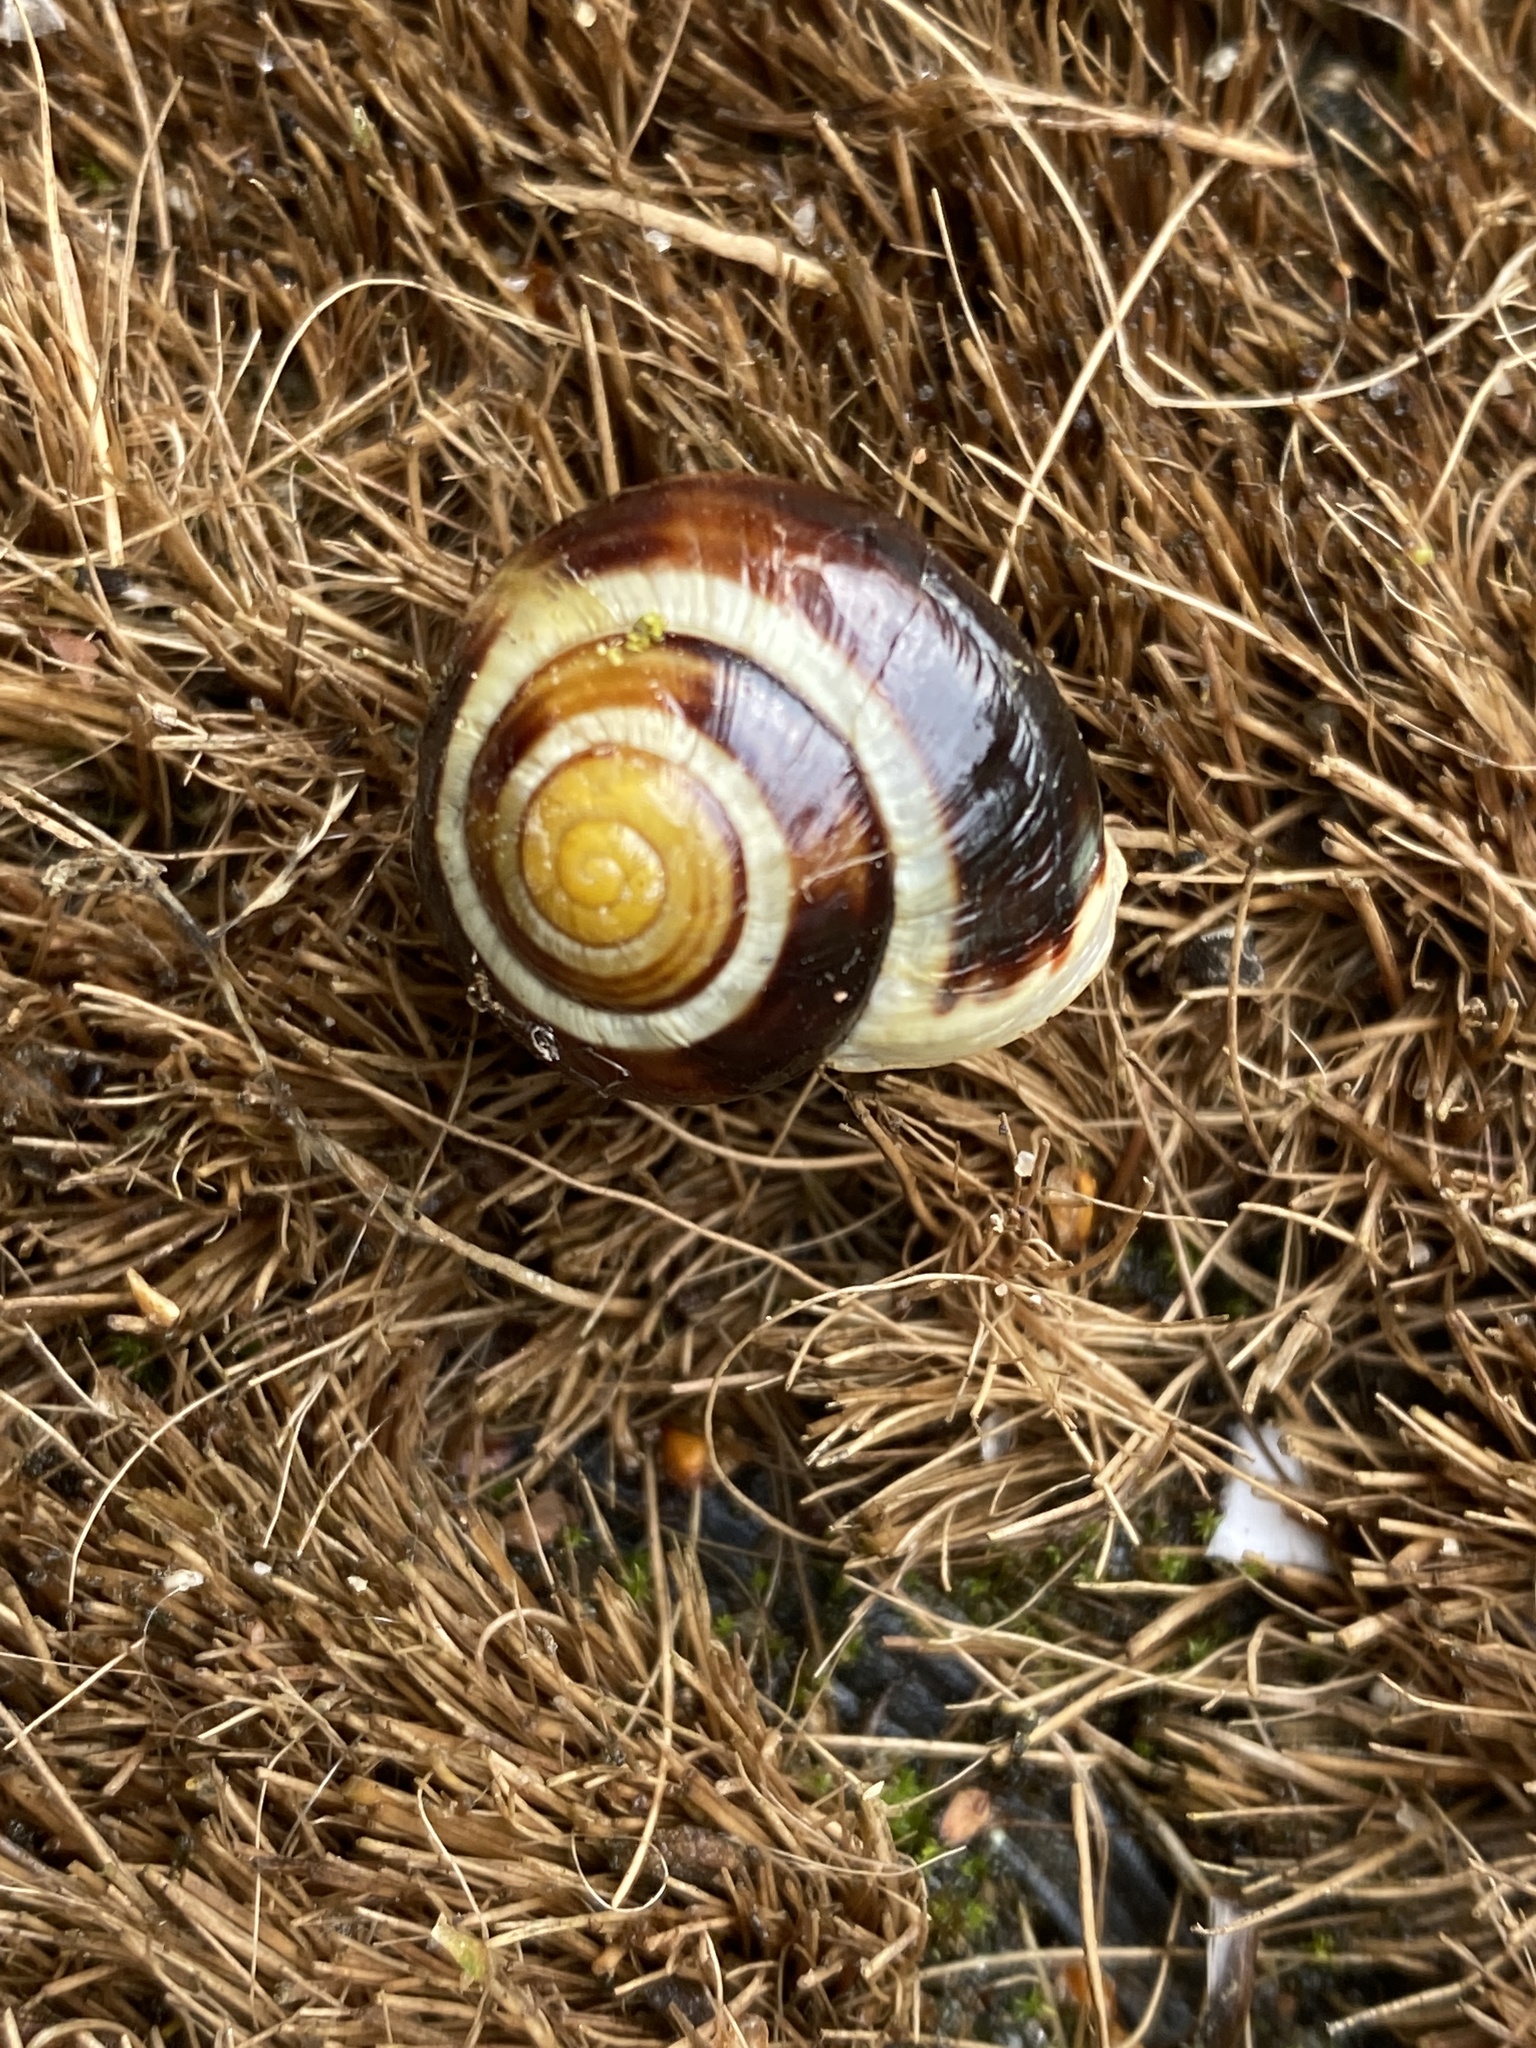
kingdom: Animalia
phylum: Mollusca
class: Gastropoda
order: Stylommatophora
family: Helicidae
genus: Cepaea
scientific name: Cepaea hortensis
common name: White-lip gardensnail
